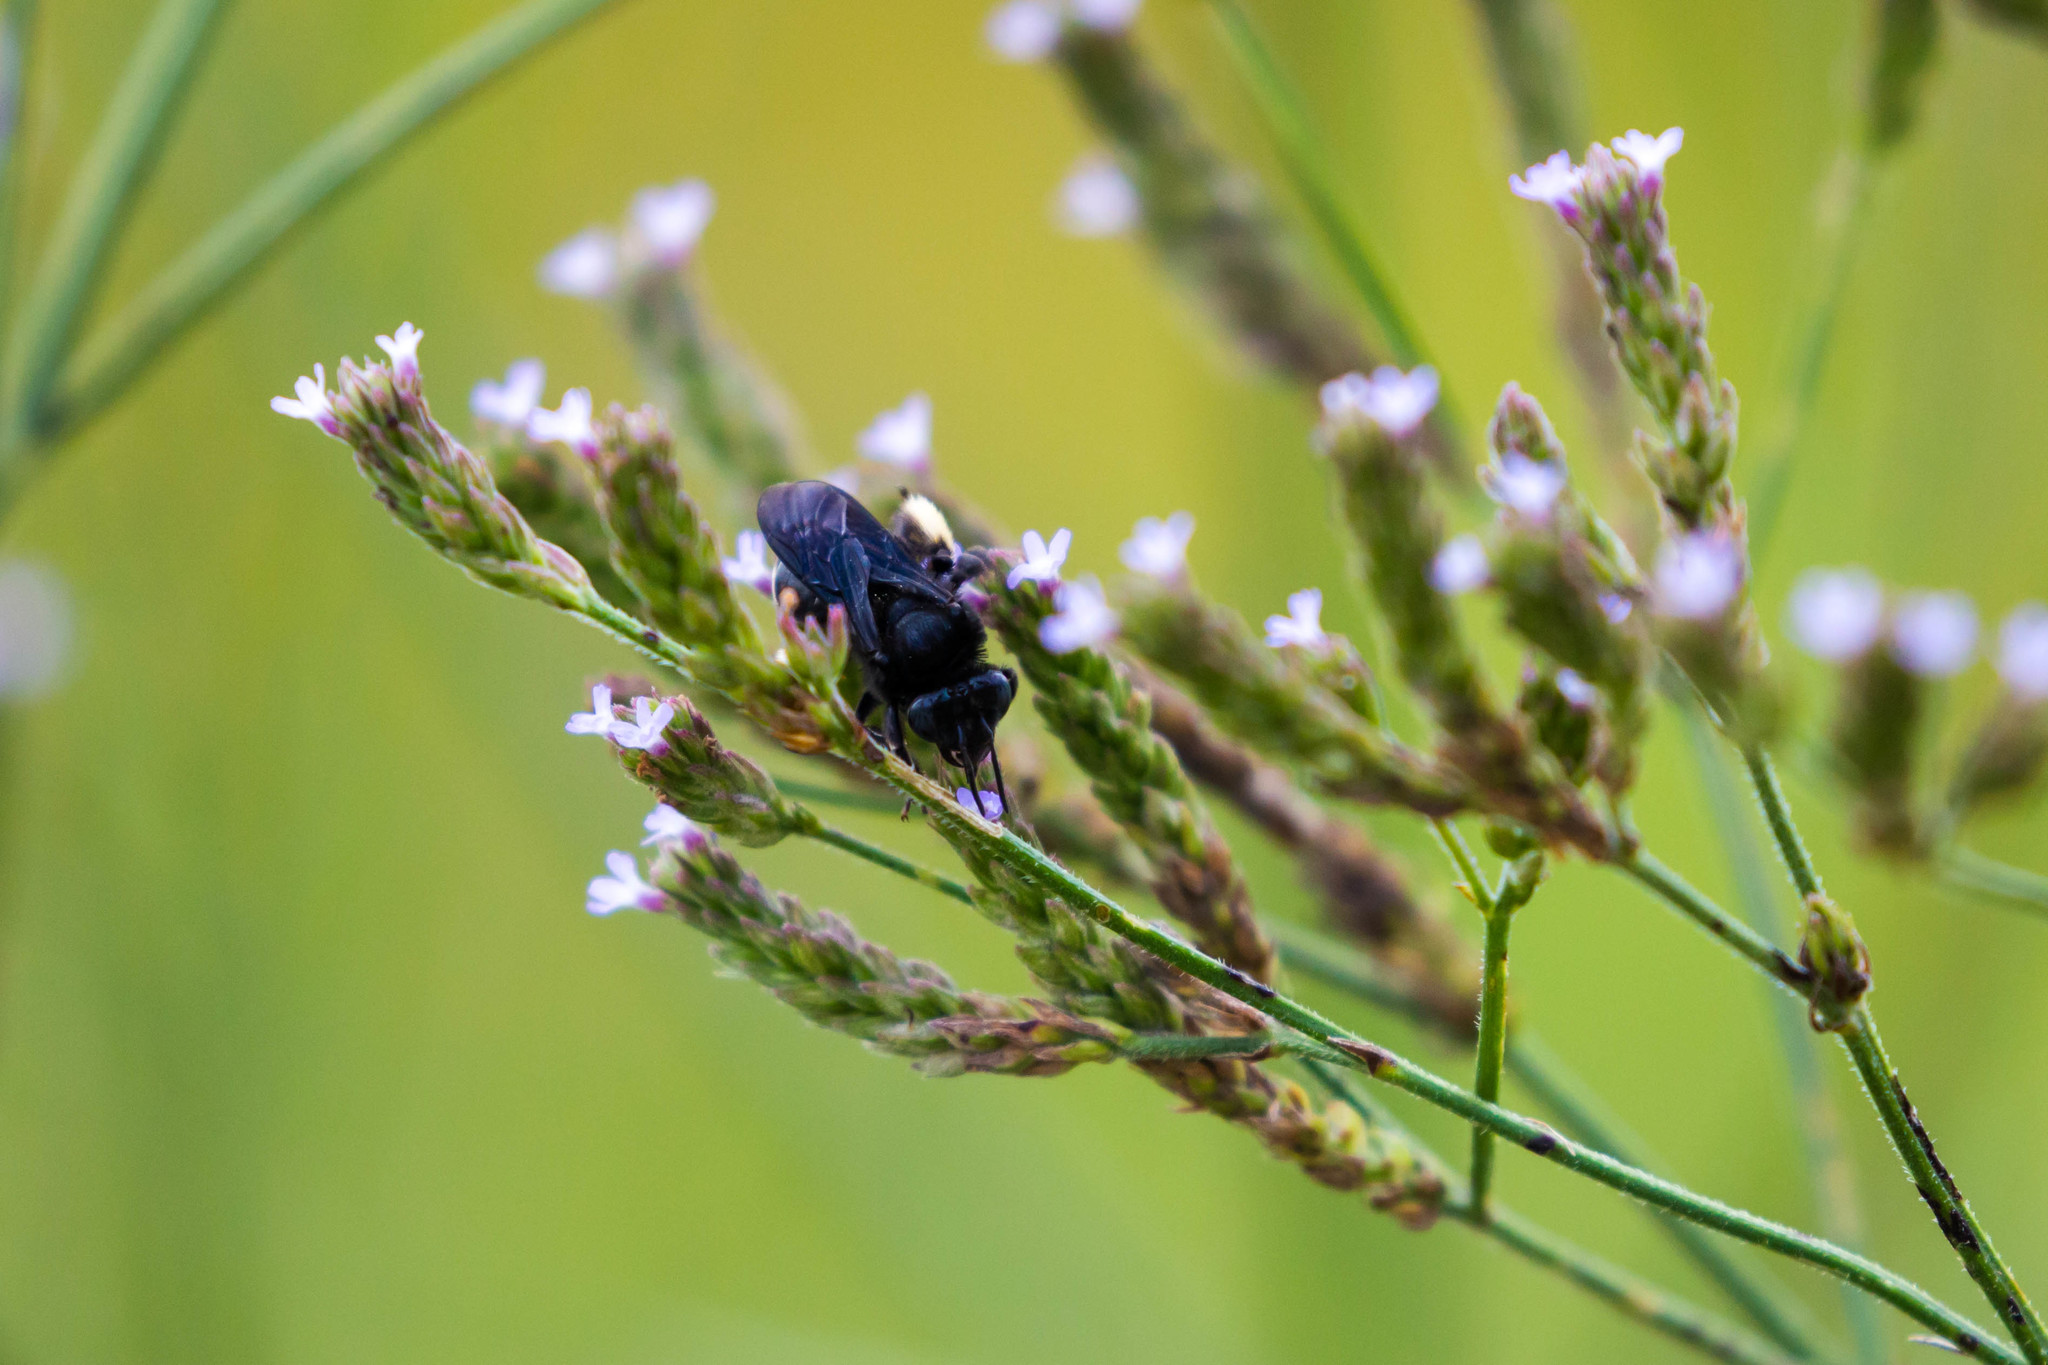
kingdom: Animalia
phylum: Arthropoda
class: Insecta
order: Hymenoptera
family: Apidae
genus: Melissodes
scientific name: Melissodes bimaculatus
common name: Two-spotted long-horned bee
